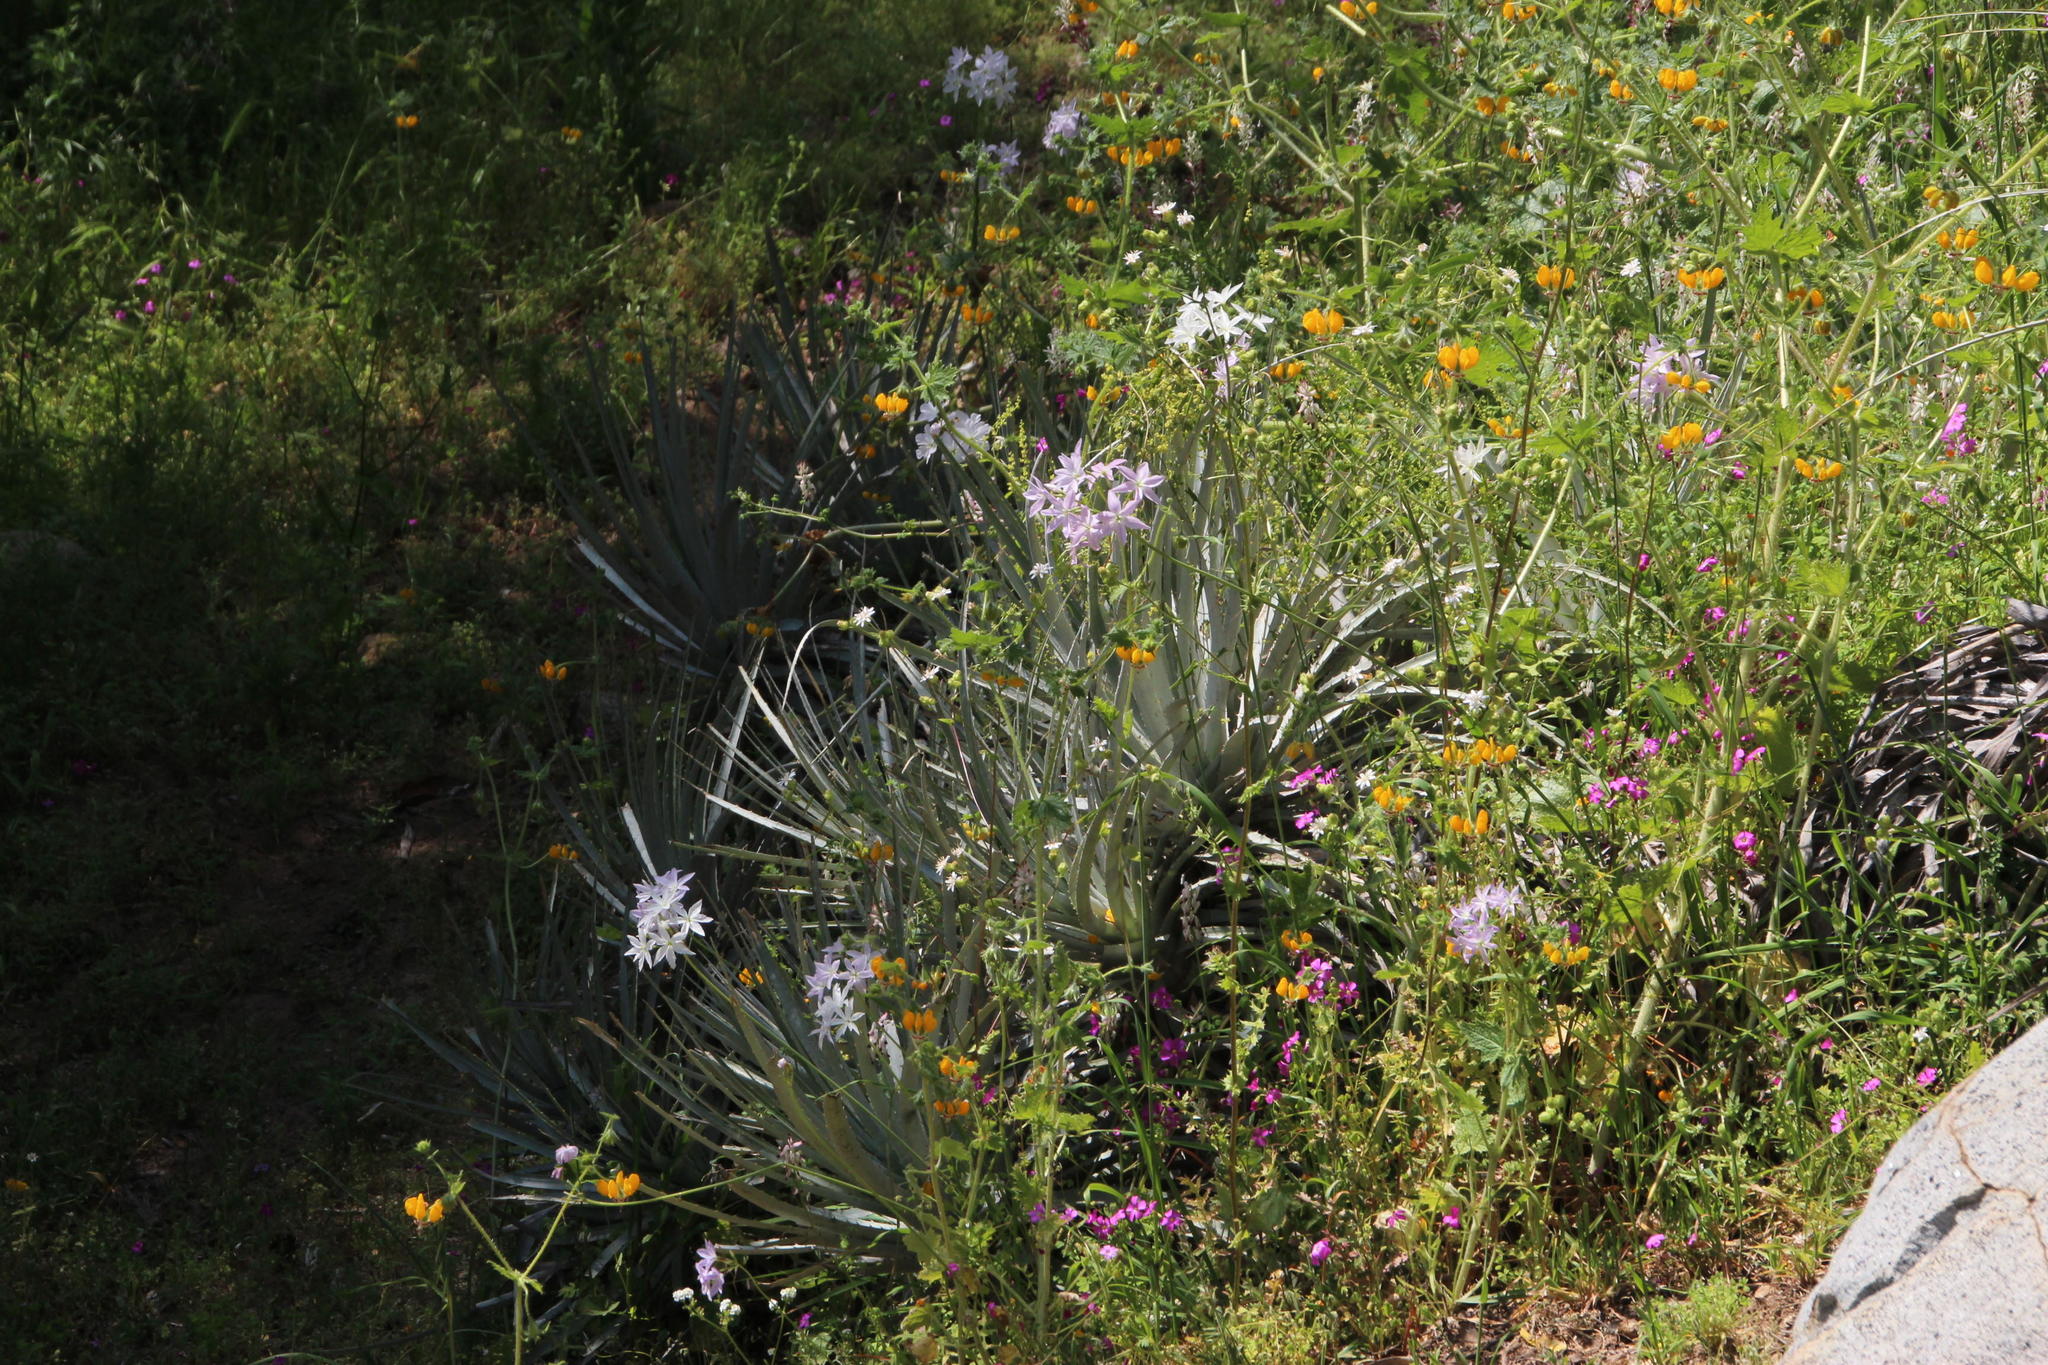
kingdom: Plantae
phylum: Tracheophyta
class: Liliopsida
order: Poales
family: Bromeliaceae
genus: Puya
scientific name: Puya coerulea
